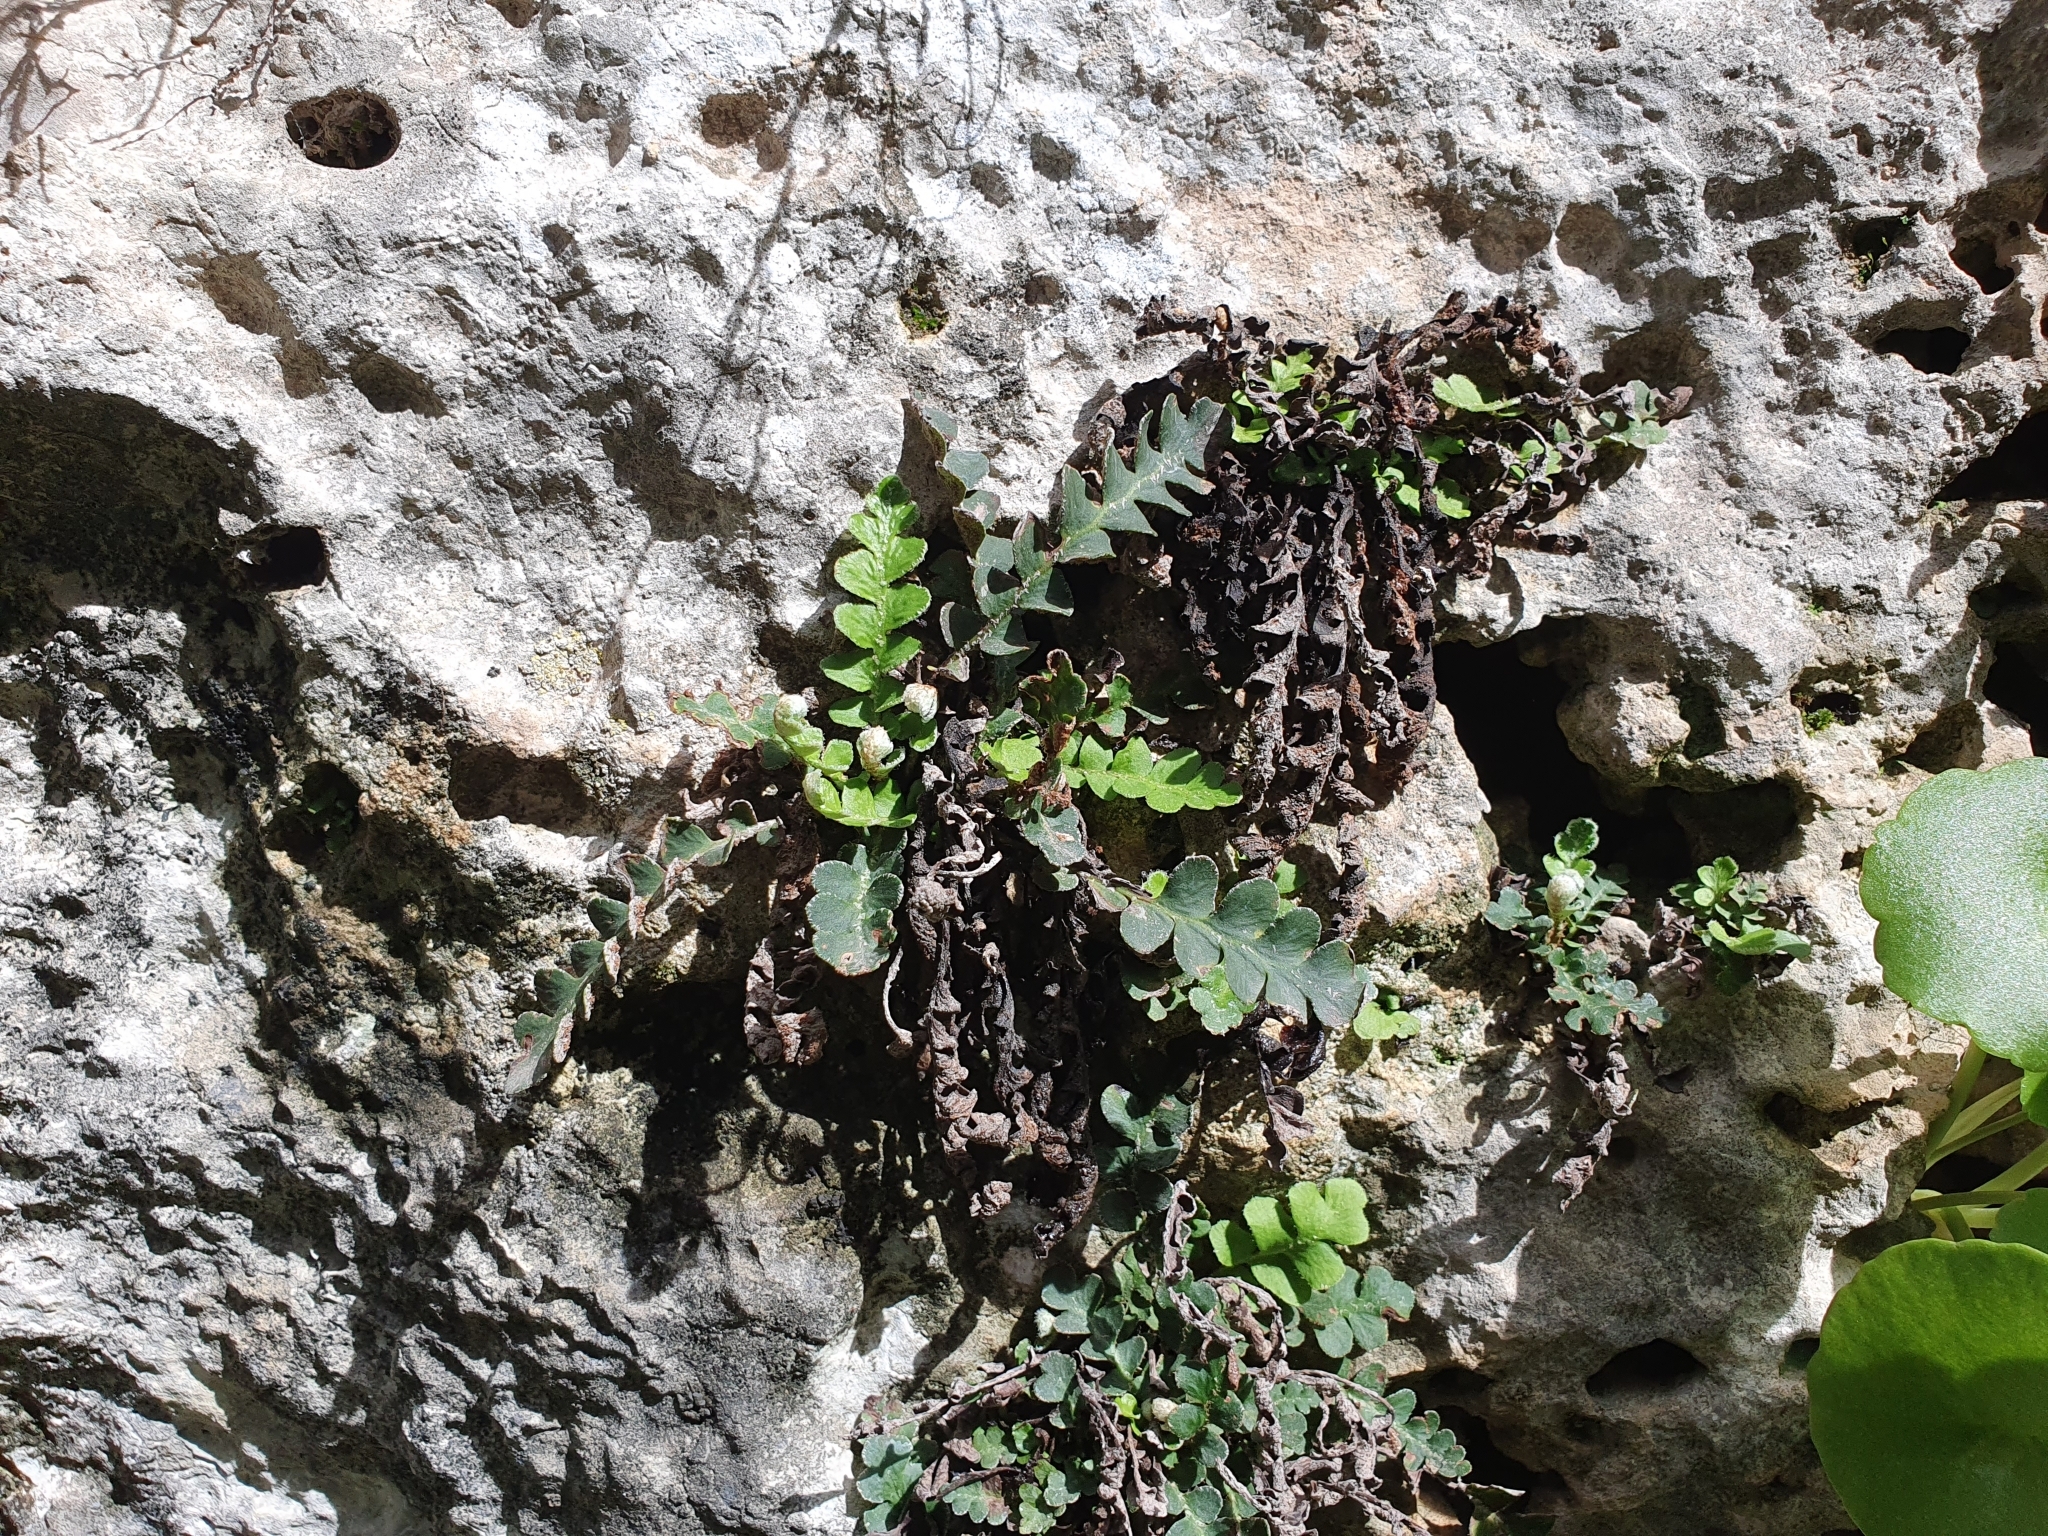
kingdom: Plantae
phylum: Tracheophyta
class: Polypodiopsida
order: Polypodiales
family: Aspleniaceae
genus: Asplenium
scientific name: Asplenium ceterach
